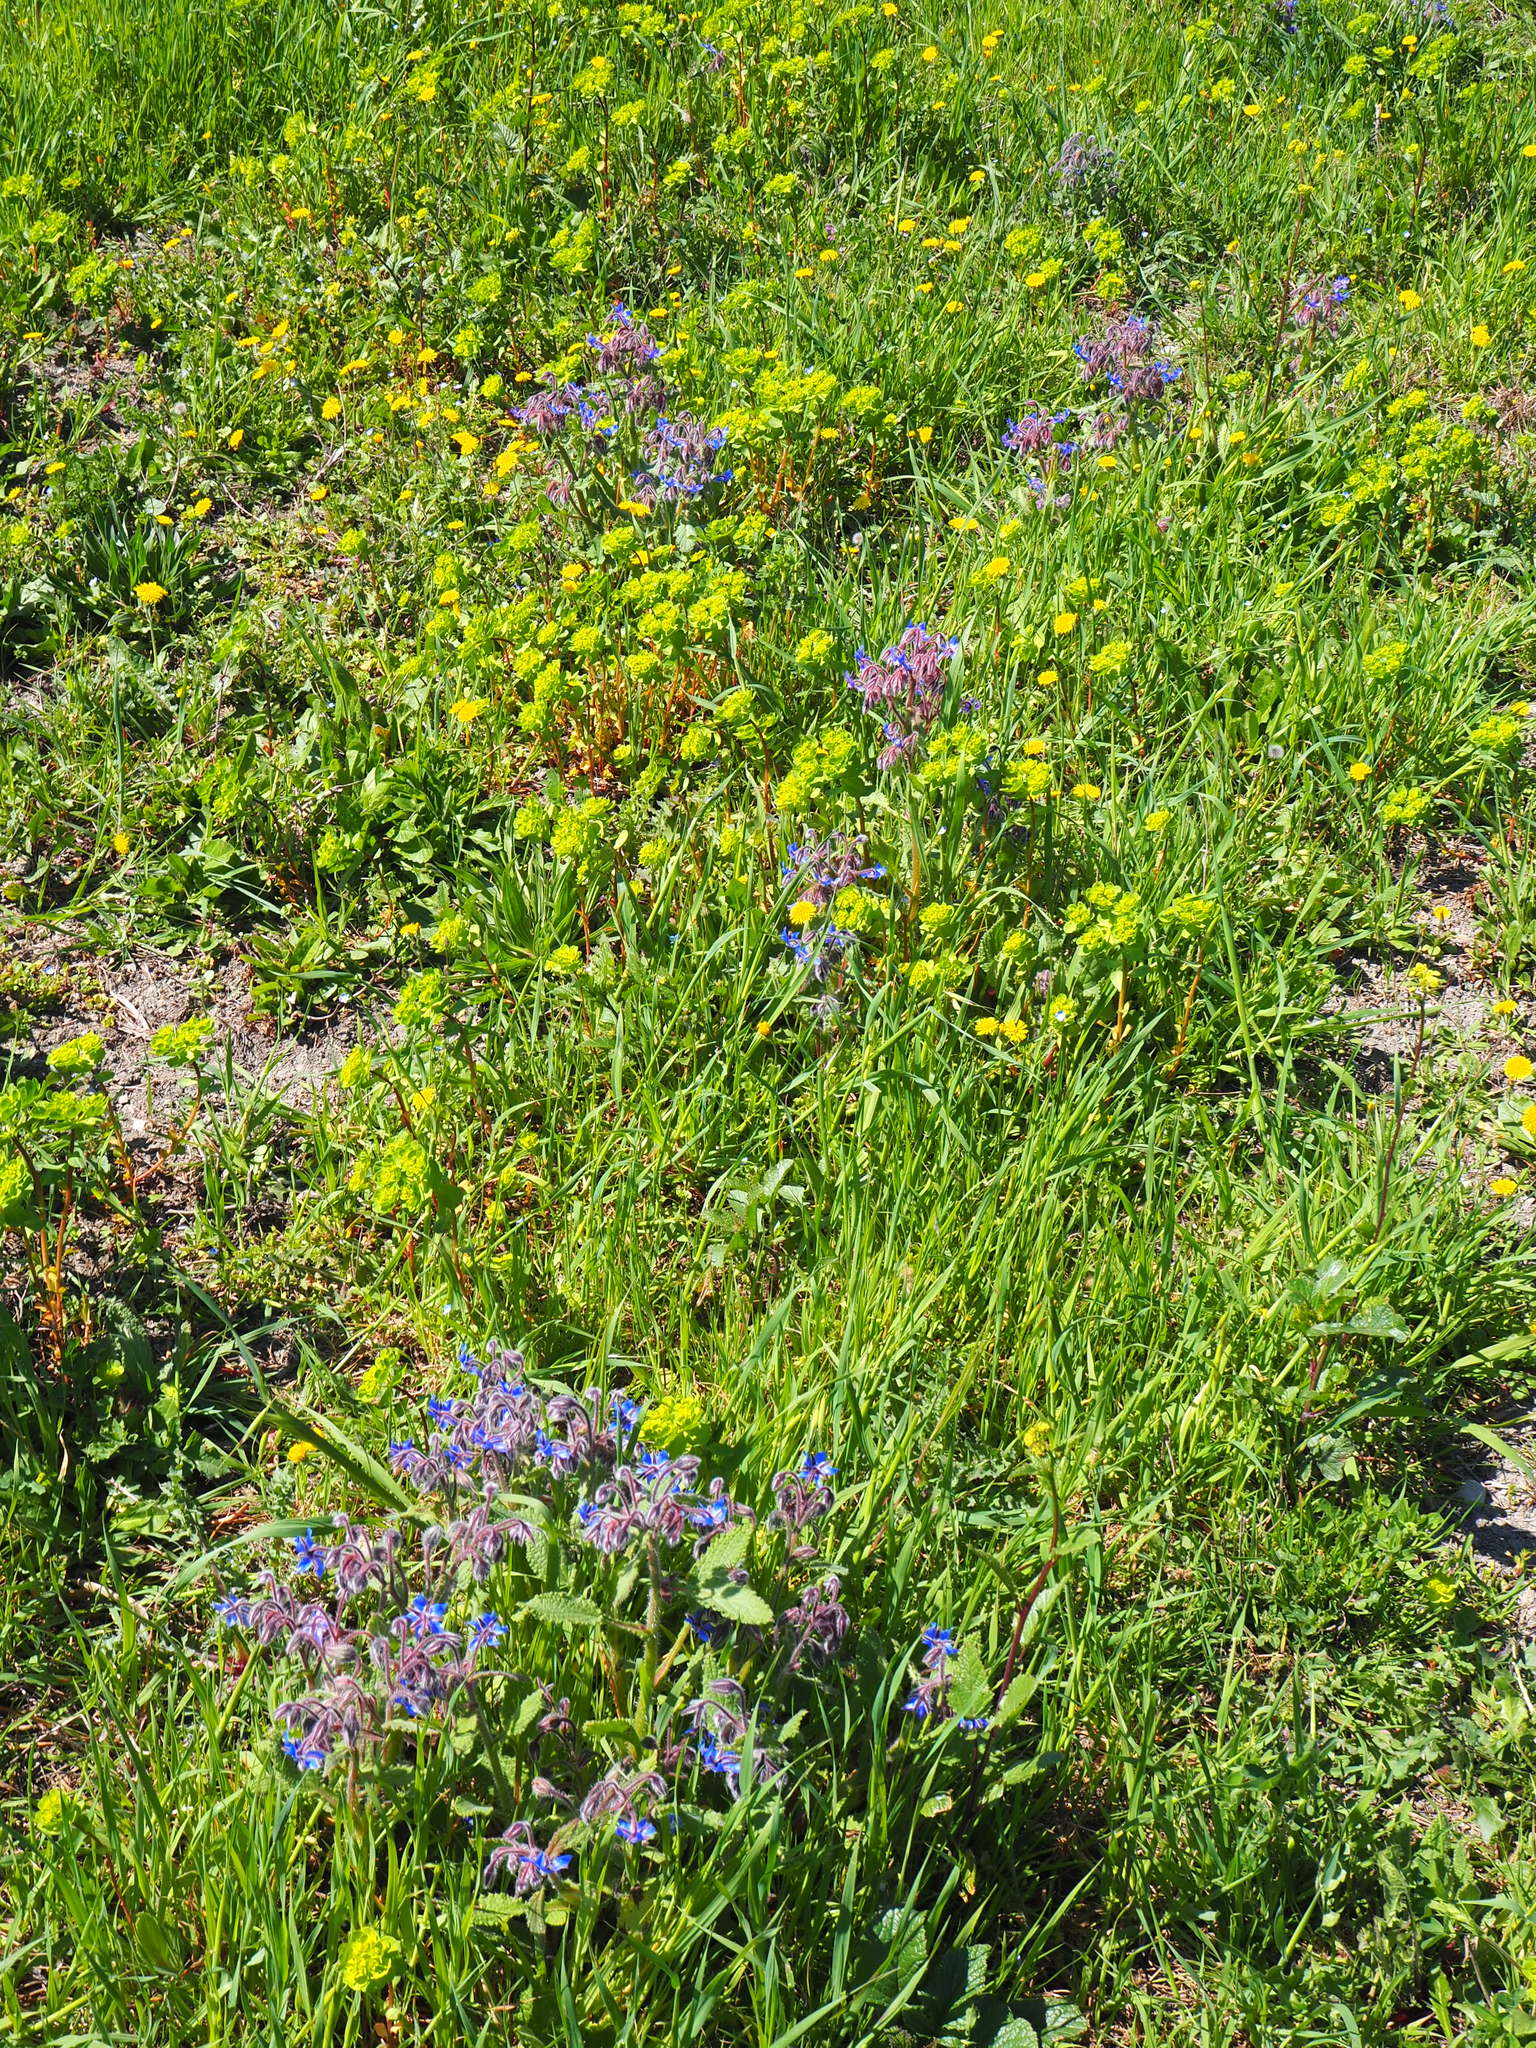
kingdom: Plantae
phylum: Tracheophyta
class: Magnoliopsida
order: Boraginales
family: Boraginaceae
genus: Borago
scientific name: Borago officinalis
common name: Borage
